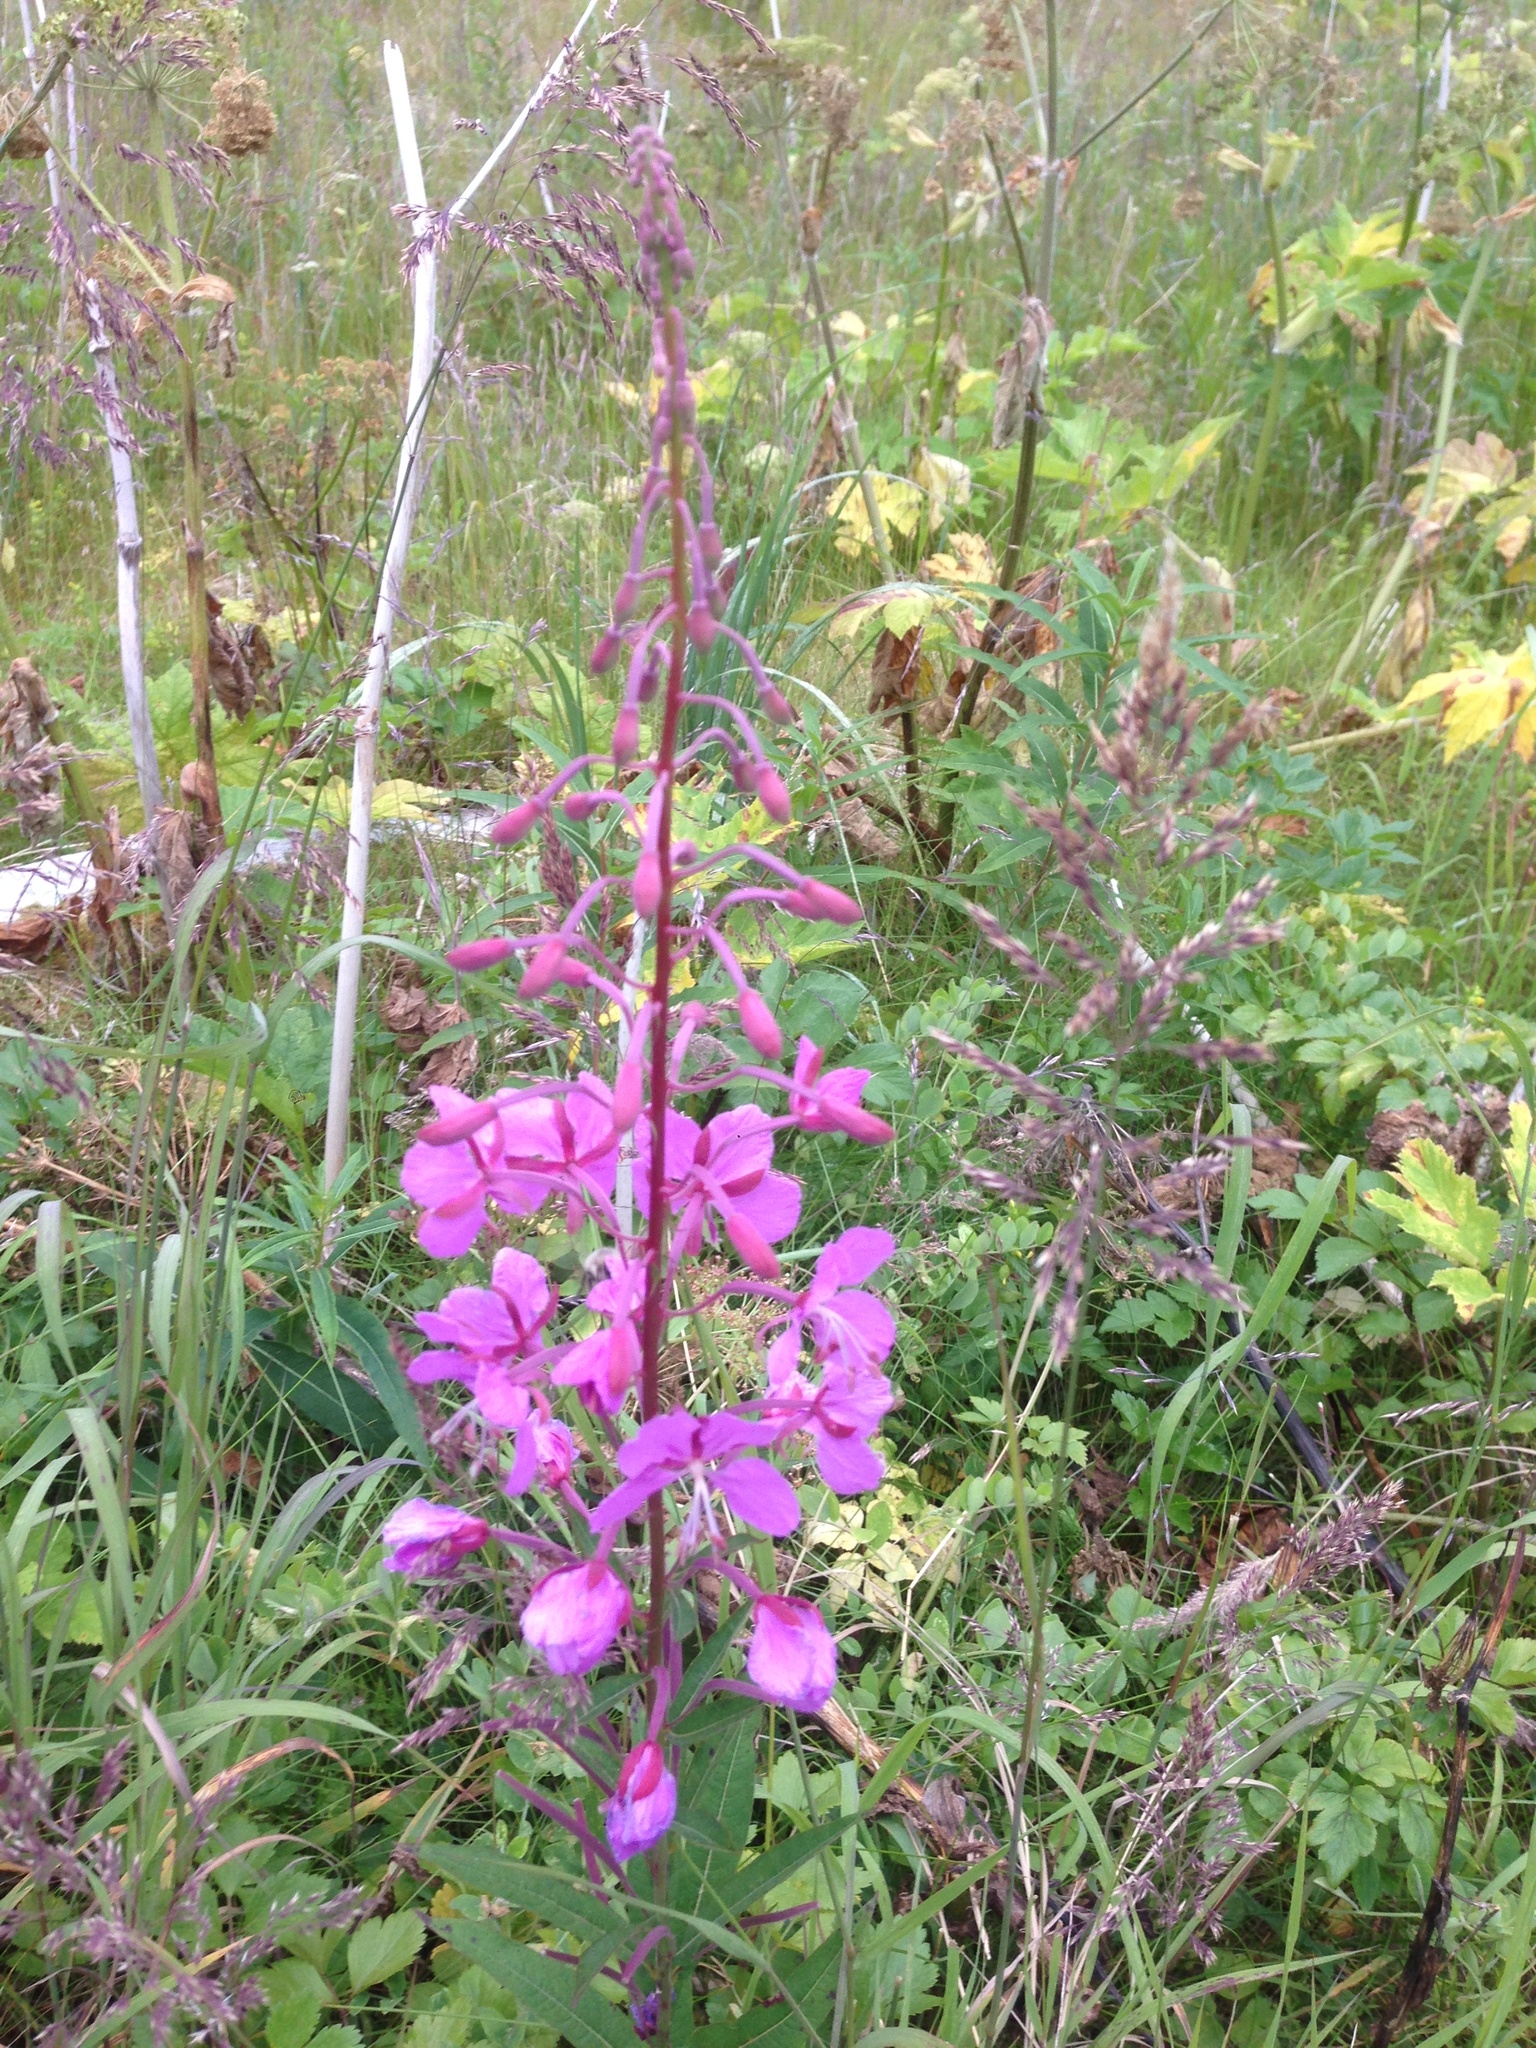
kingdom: Plantae
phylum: Tracheophyta
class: Magnoliopsida
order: Myrtales
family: Onagraceae
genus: Chamaenerion
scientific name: Chamaenerion angustifolium
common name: Fireweed
